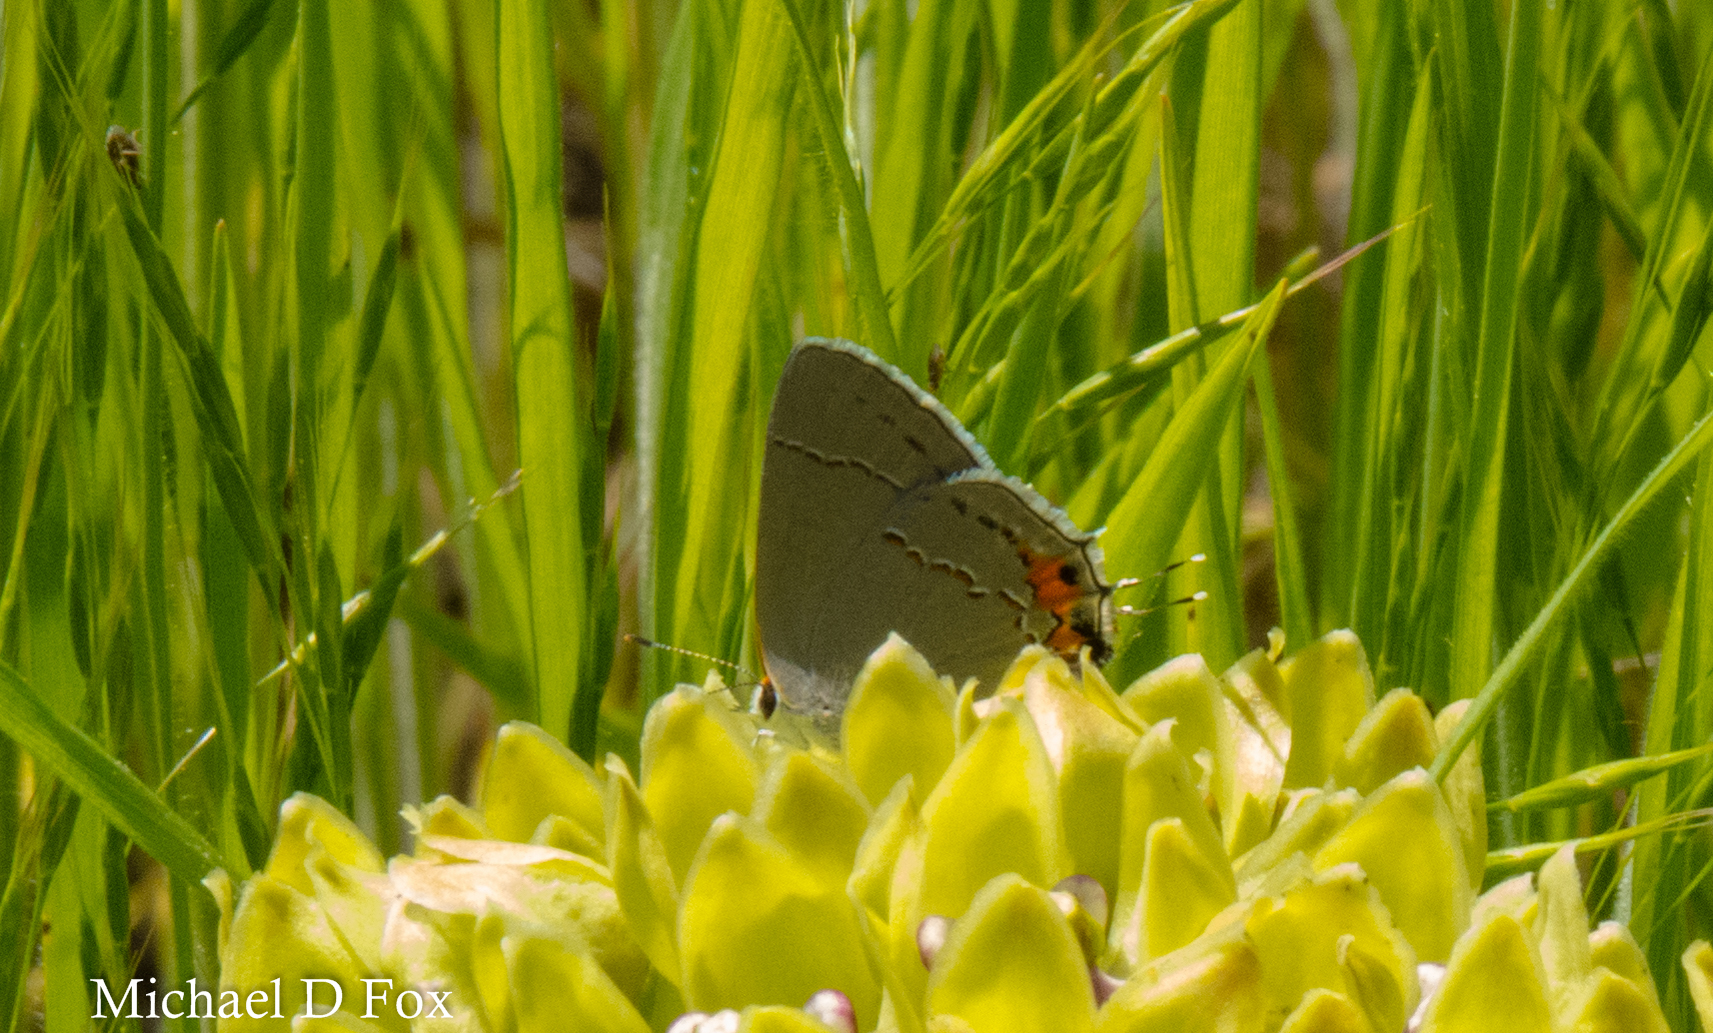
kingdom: Animalia
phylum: Arthropoda
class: Insecta
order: Lepidoptera
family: Lycaenidae
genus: Strymon
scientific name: Strymon melinus
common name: Gray hairstreak
